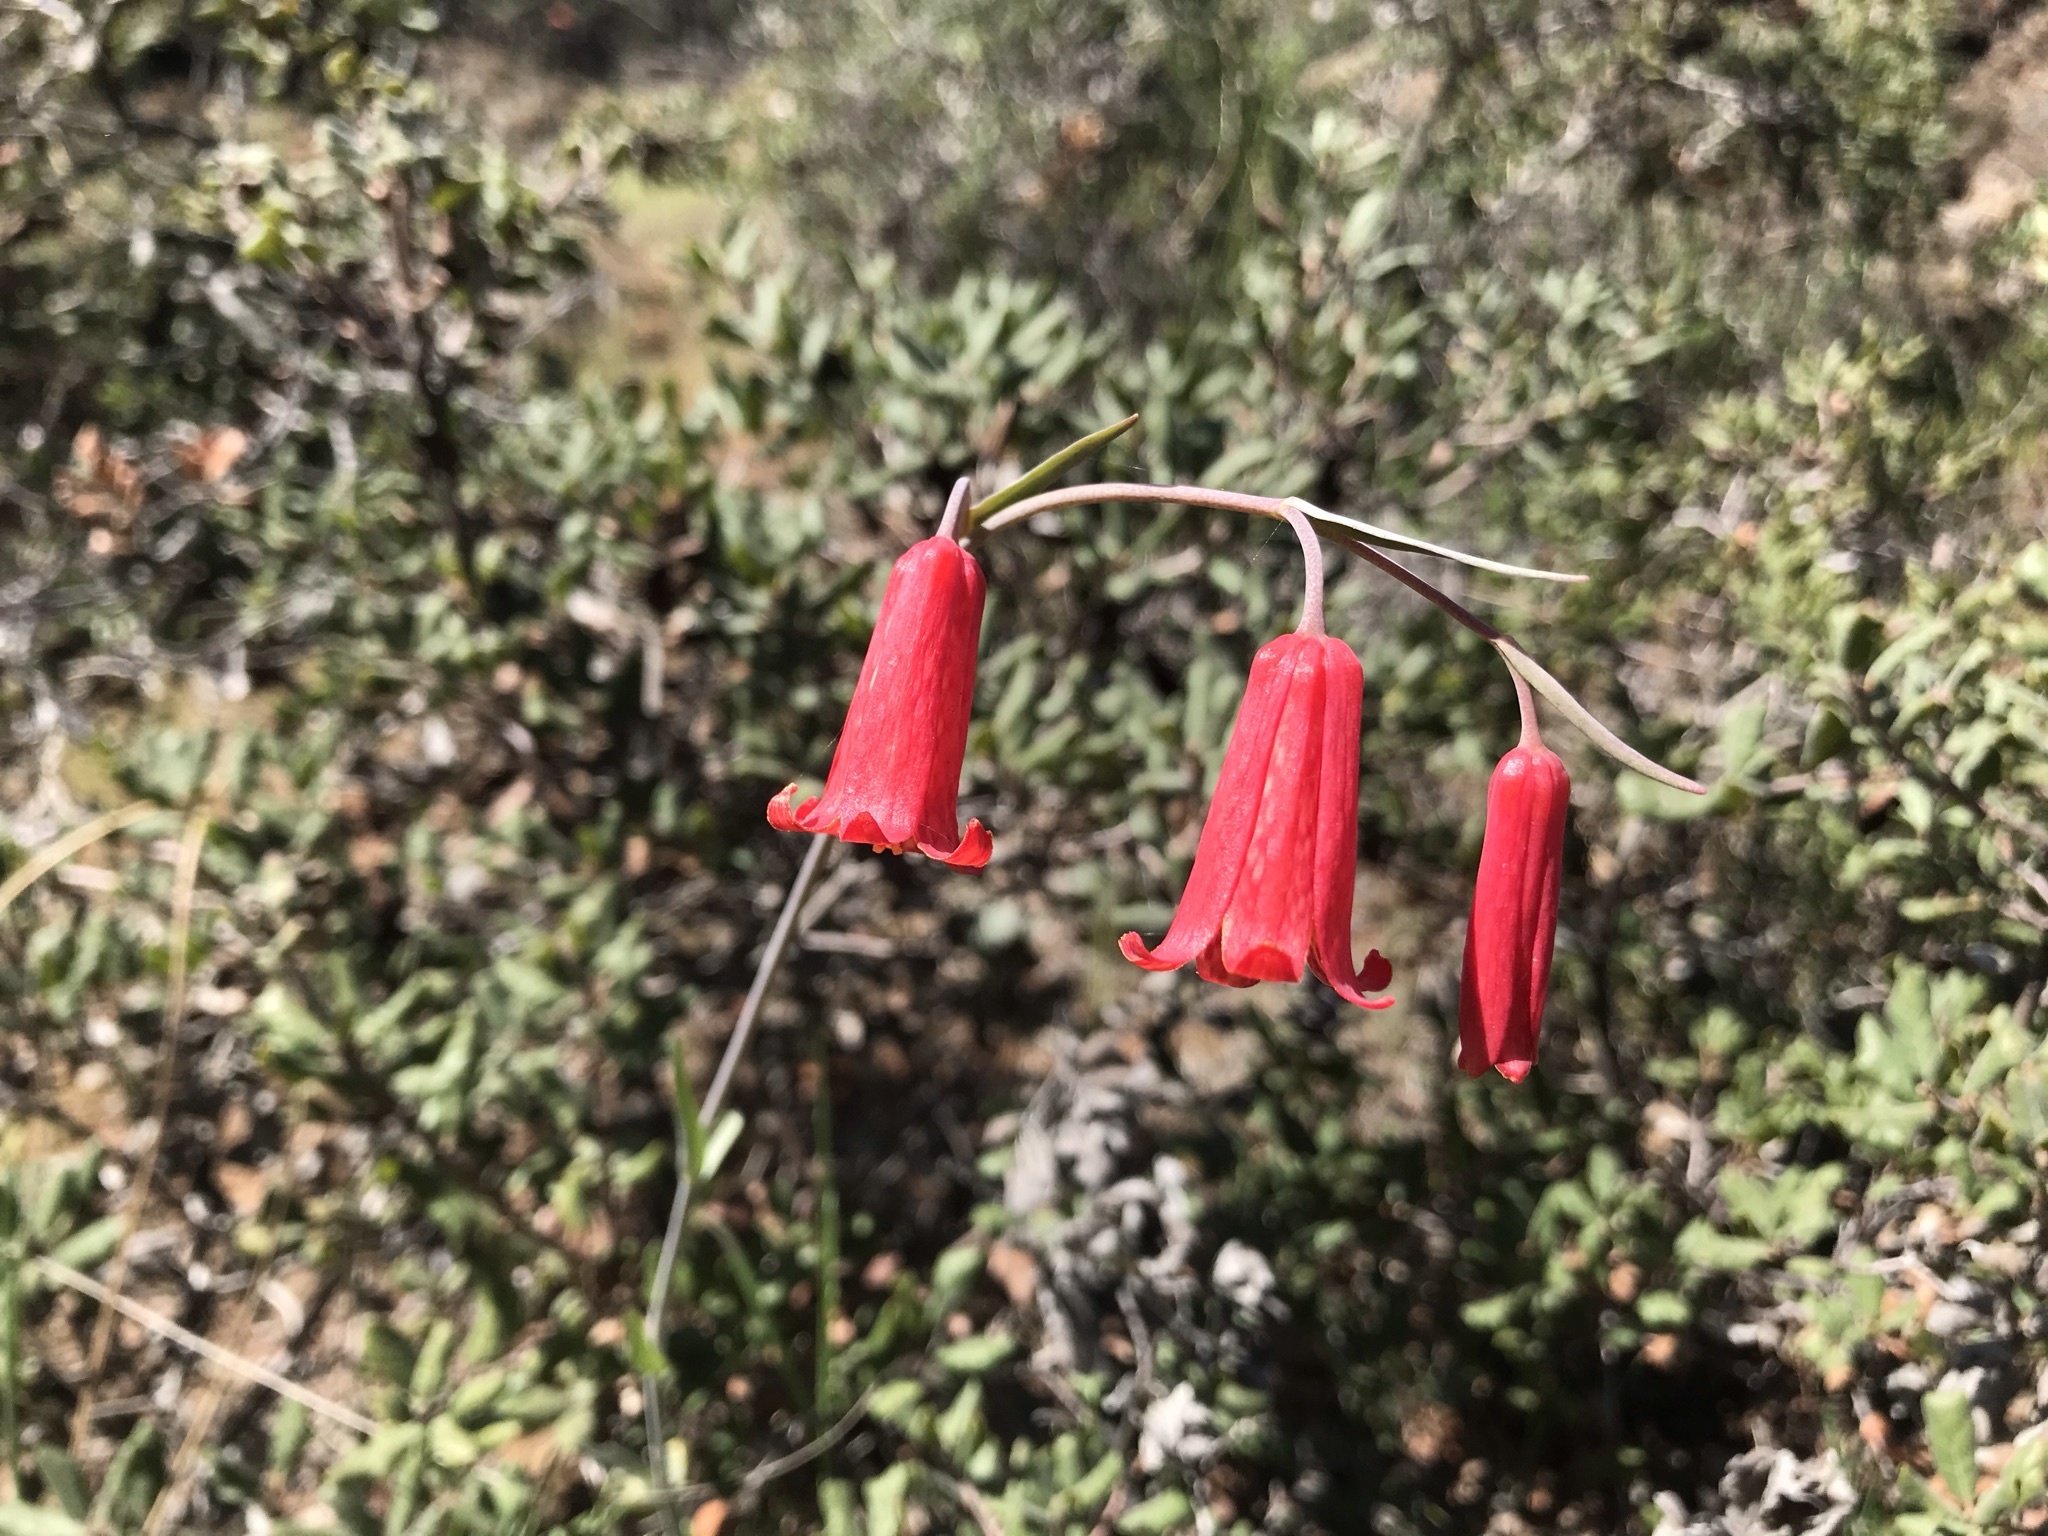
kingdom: Plantae
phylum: Tracheophyta
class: Liliopsida
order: Liliales
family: Liliaceae
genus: Fritillaria
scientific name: Fritillaria recurva
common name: Scarlet fritillary
